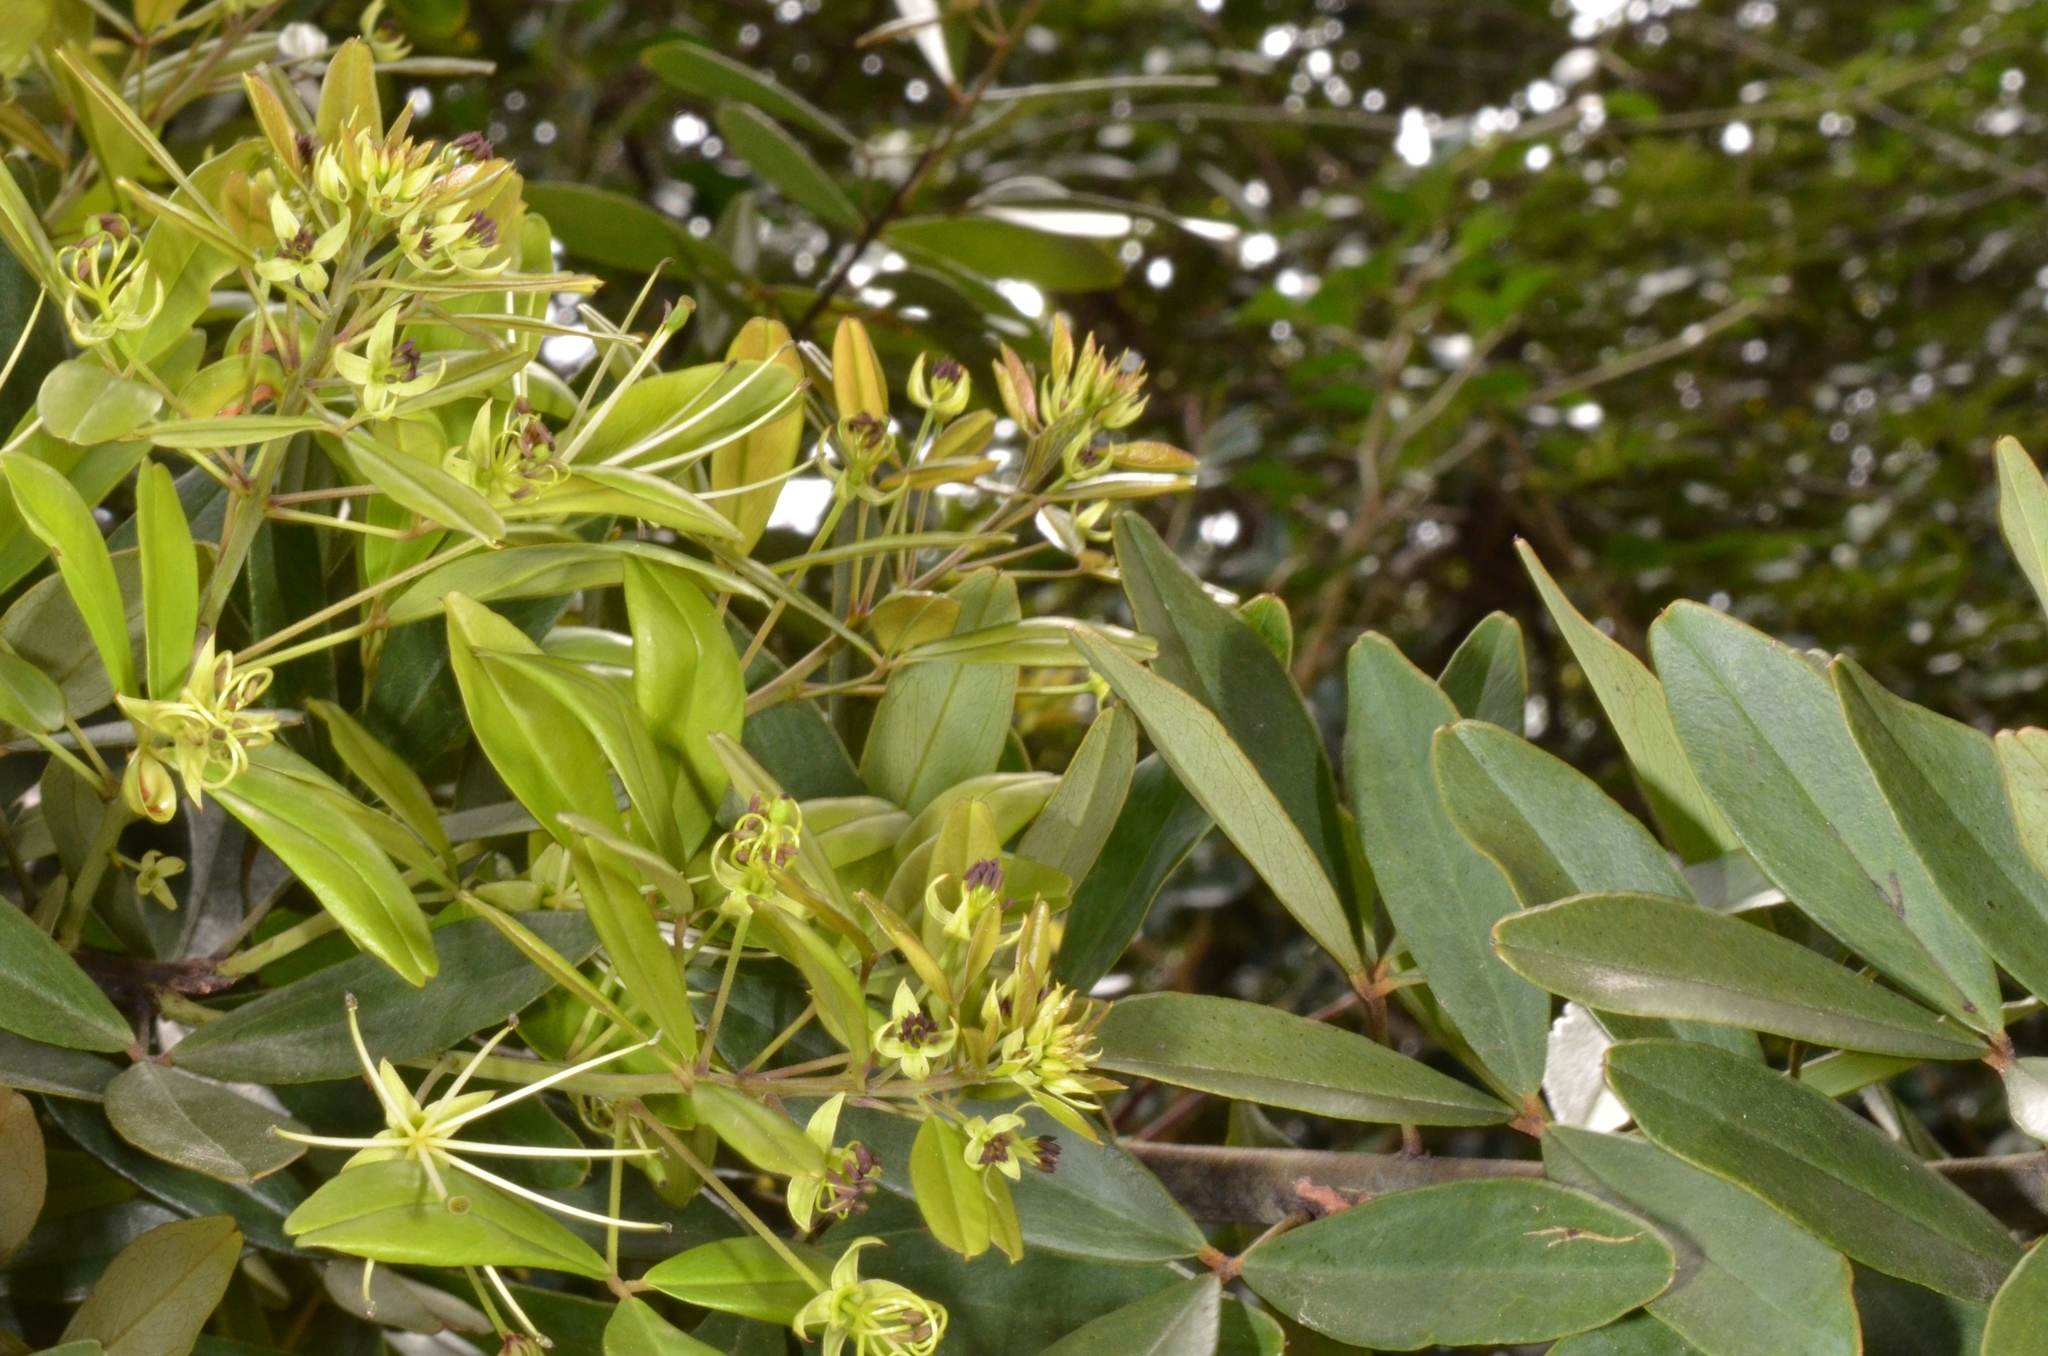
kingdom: Plantae
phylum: Tracheophyta
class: Magnoliopsida
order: Brassicales
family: Capparaceae
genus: Maerua
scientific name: Maerua siamensis
